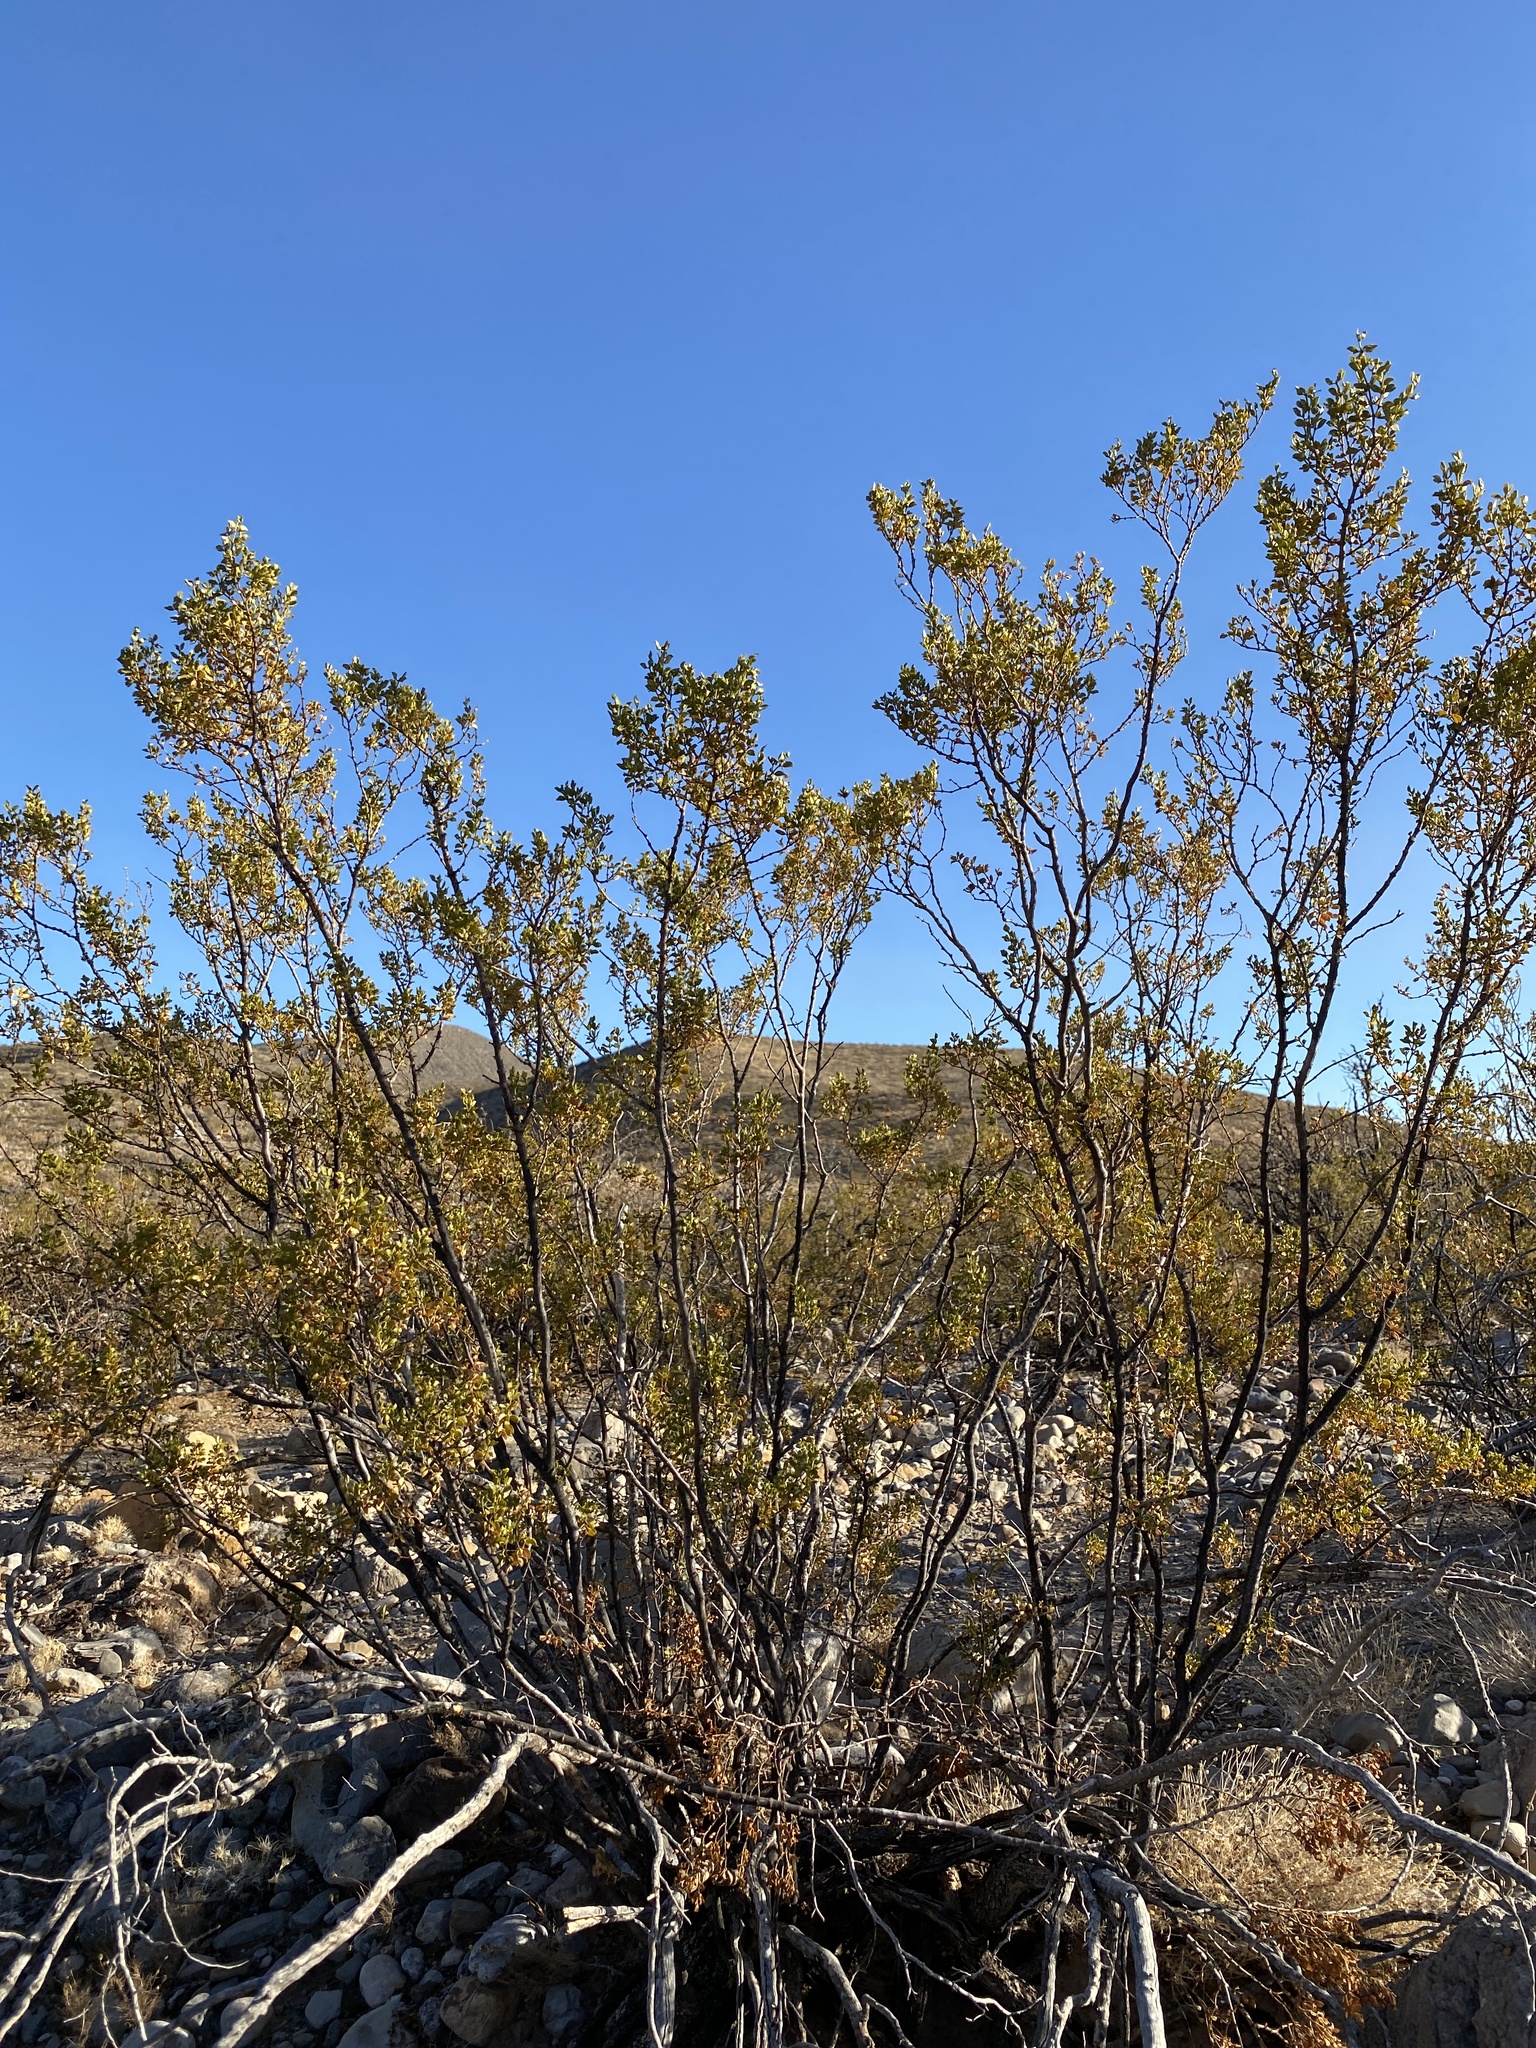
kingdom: Plantae
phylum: Tracheophyta
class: Magnoliopsida
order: Zygophyllales
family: Zygophyllaceae
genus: Larrea
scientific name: Larrea tridentata
